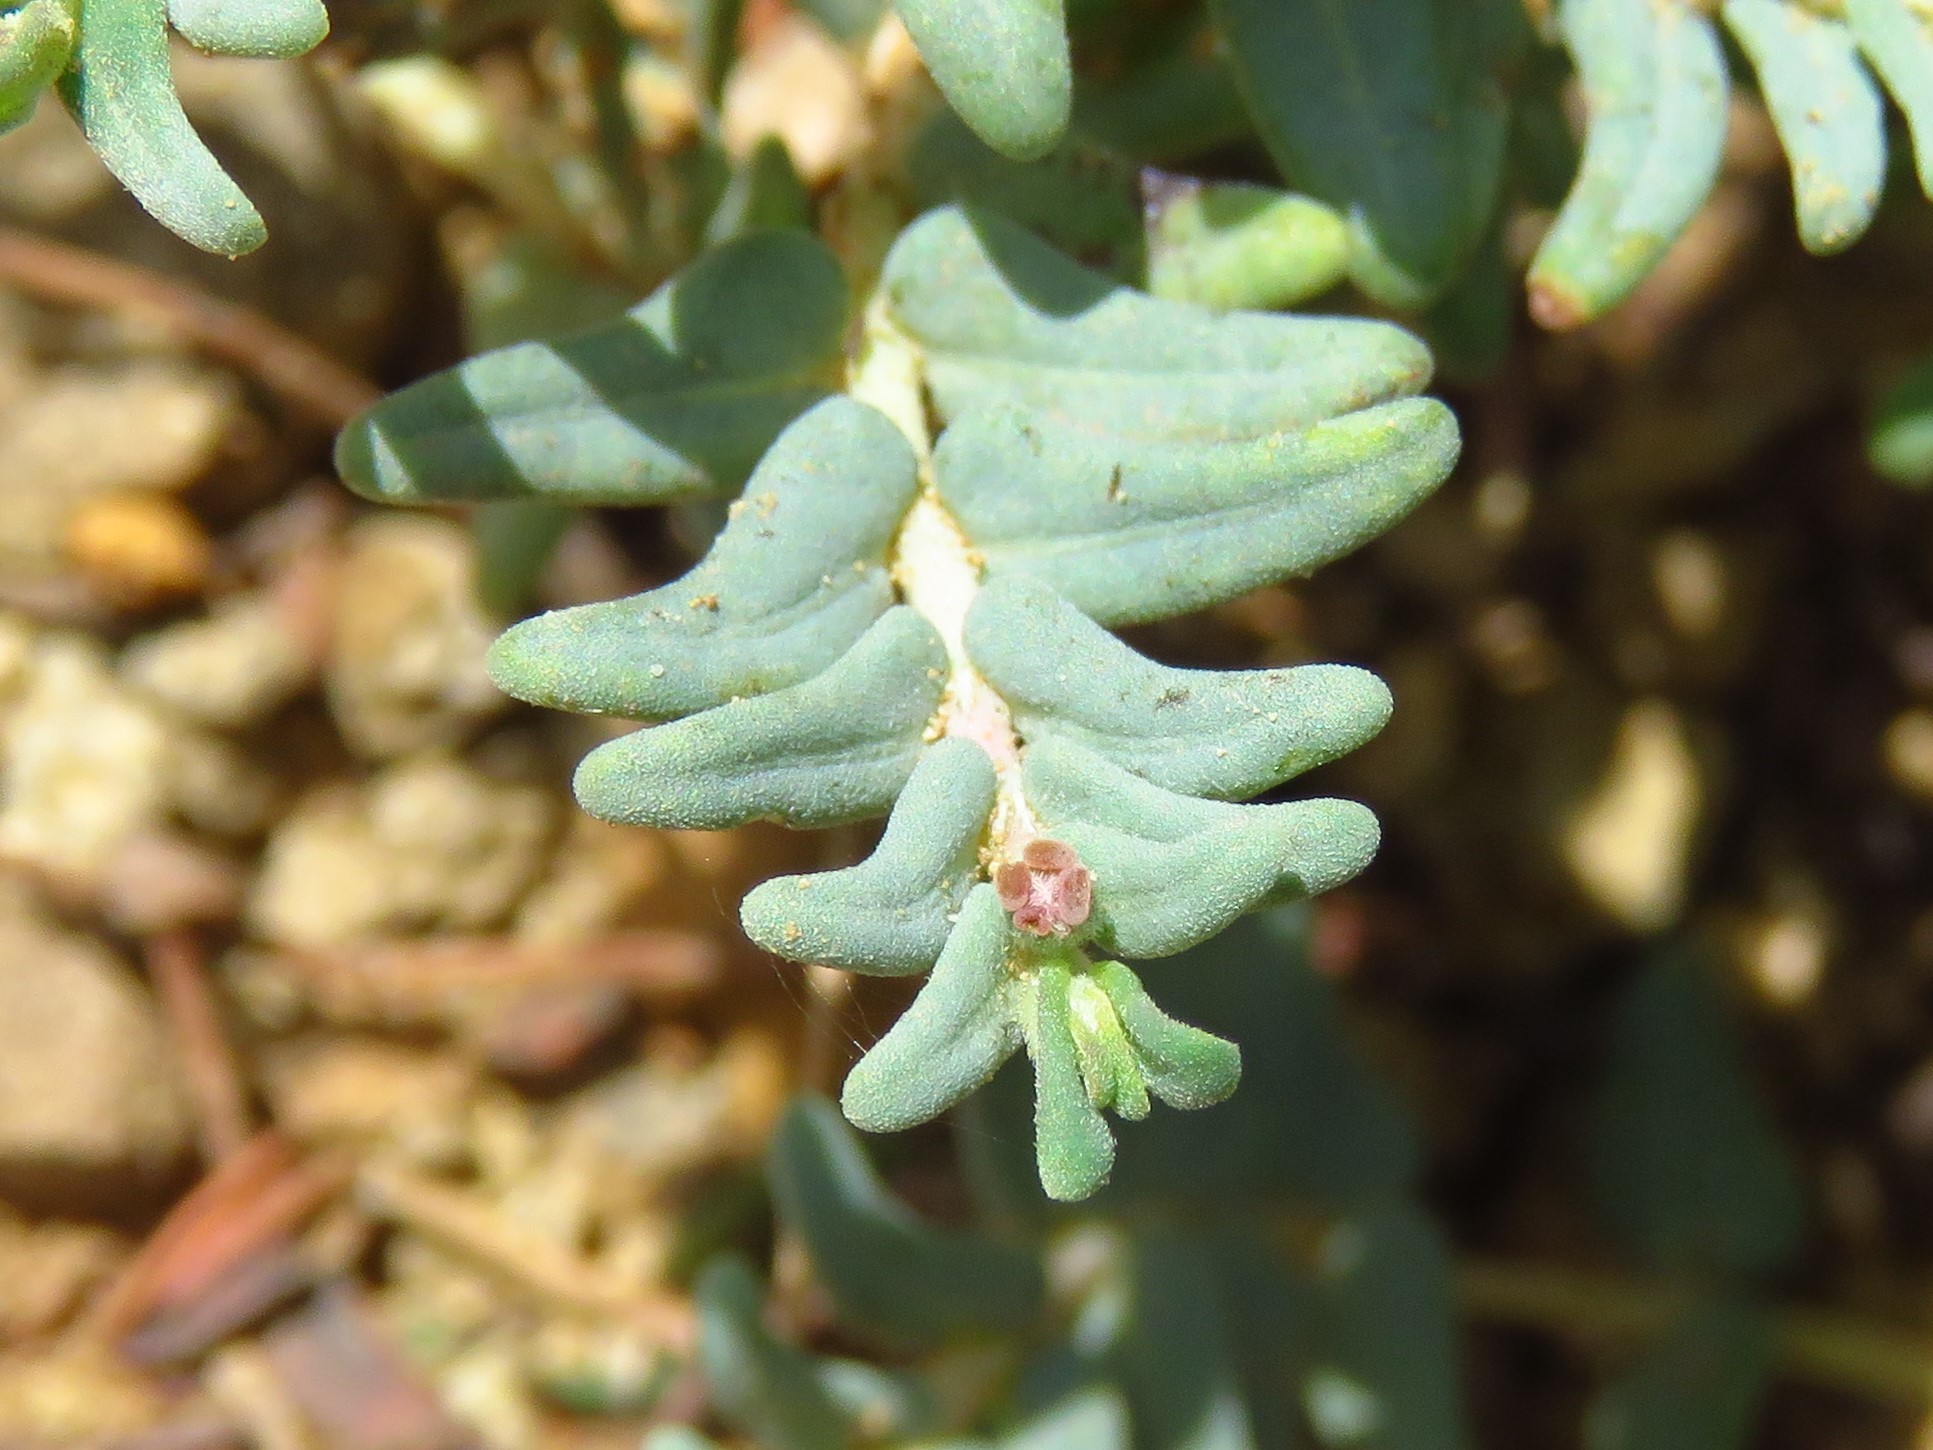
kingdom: Plantae
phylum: Tracheophyta
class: Magnoliopsida
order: Malpighiales
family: Euphorbiaceae
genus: Euphorbia
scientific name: Euphorbia lata
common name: Hoary euphorbia
